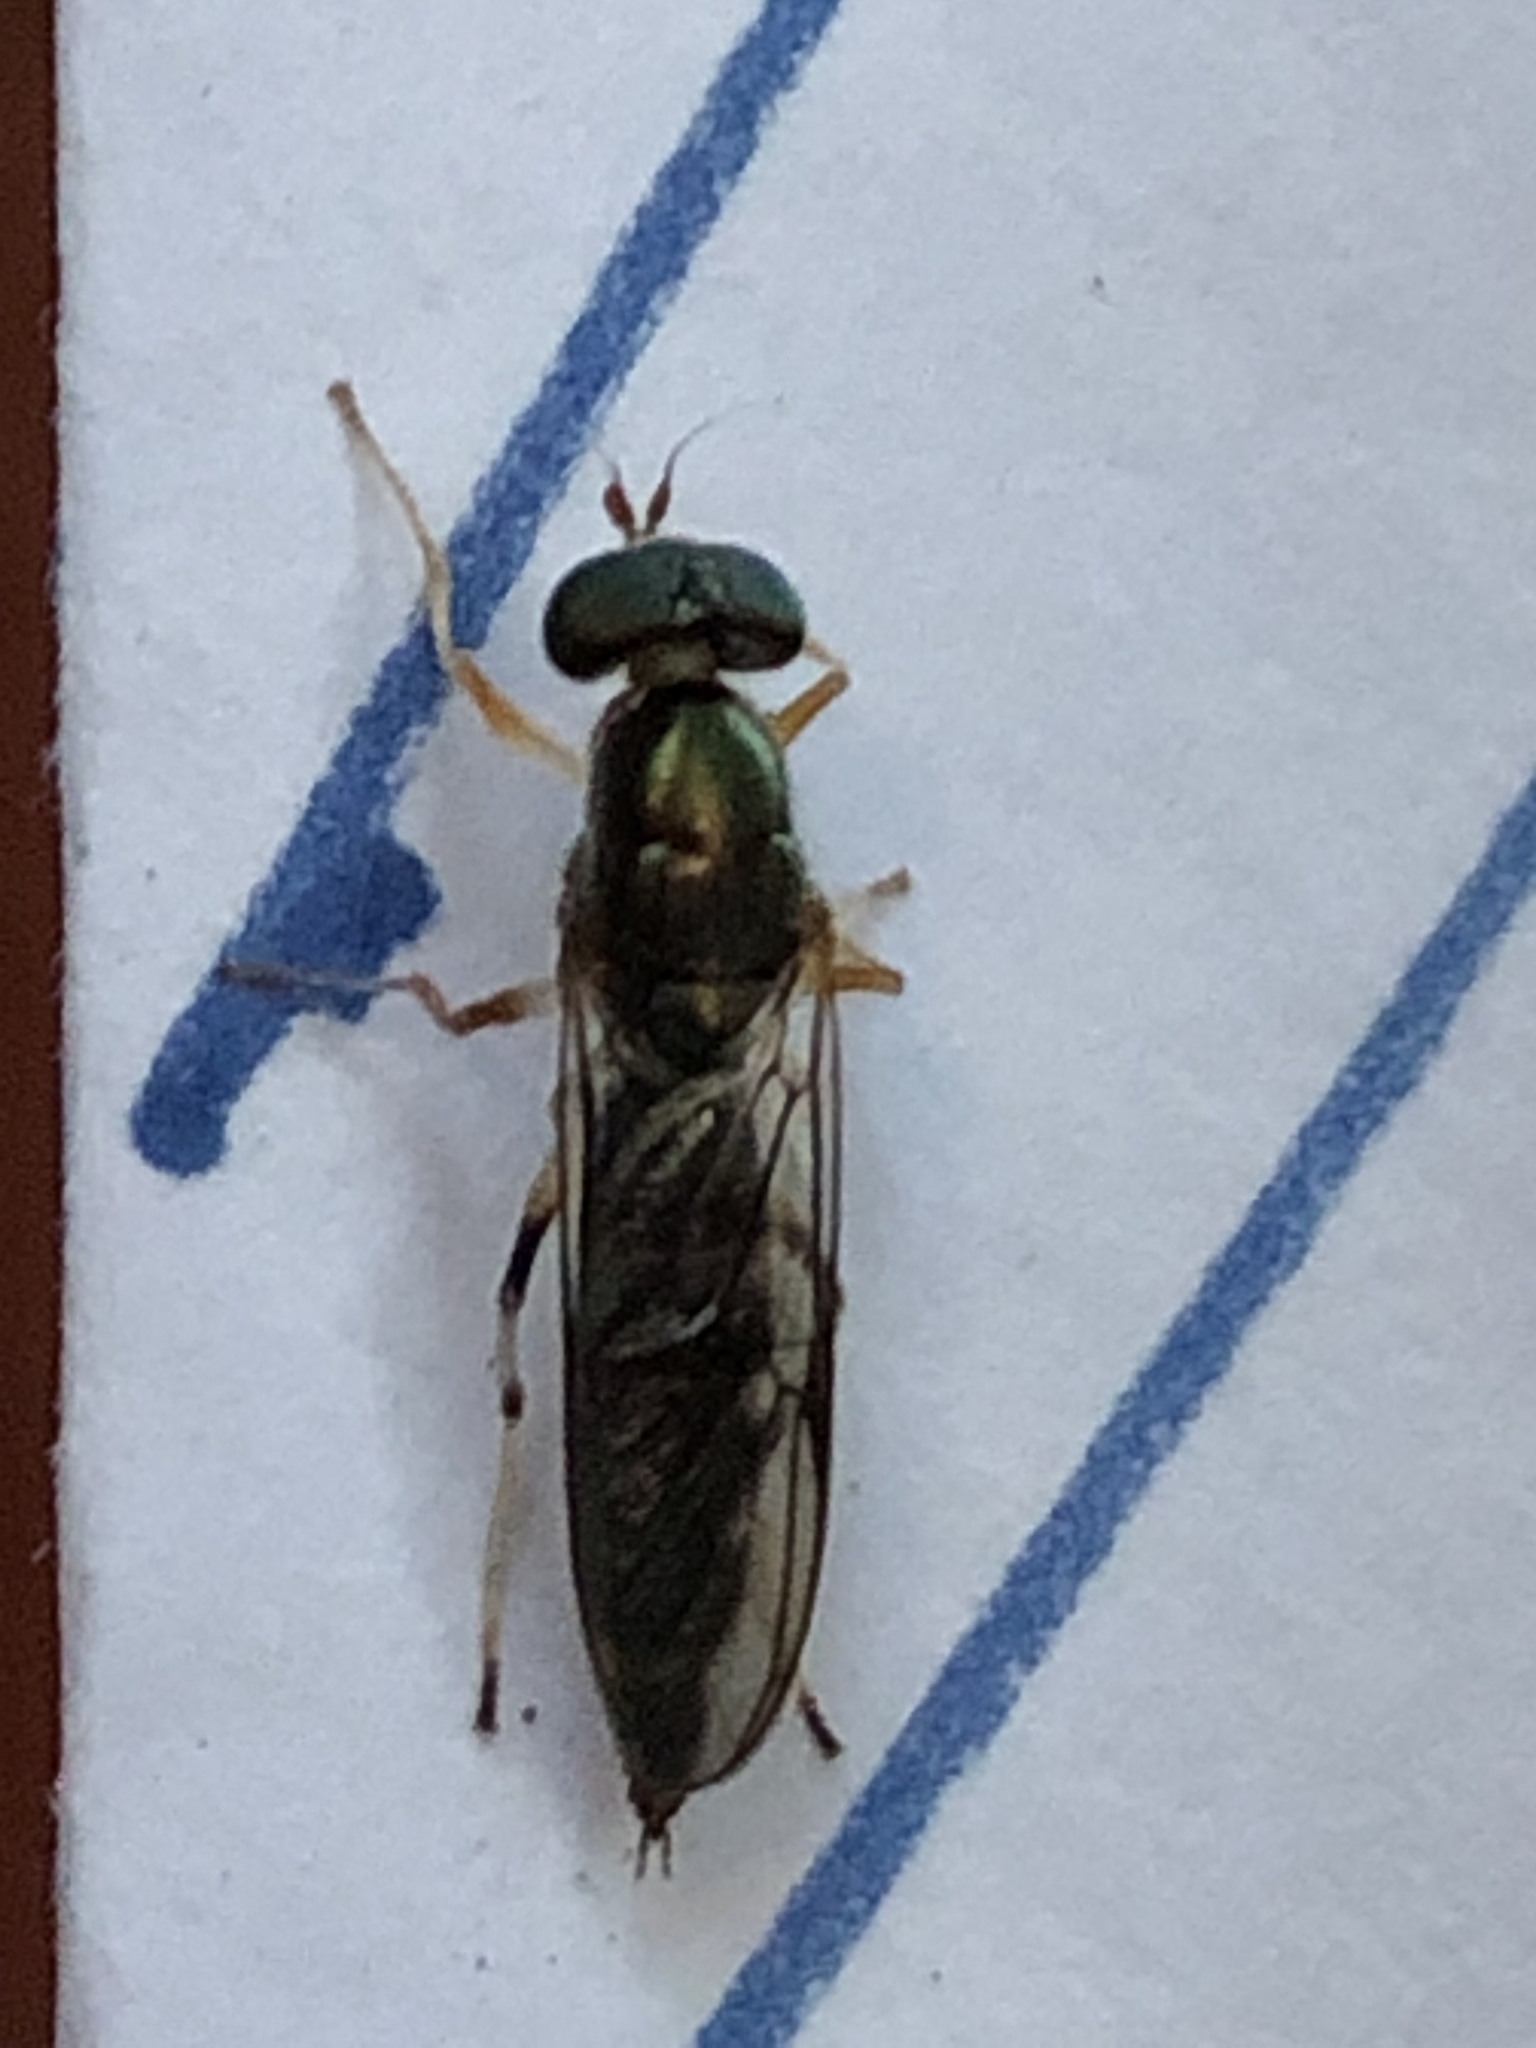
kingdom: Animalia
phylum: Arthropoda
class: Insecta
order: Diptera
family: Stratiomyidae
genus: Merosargus
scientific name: Merosargus caeruleifrons
